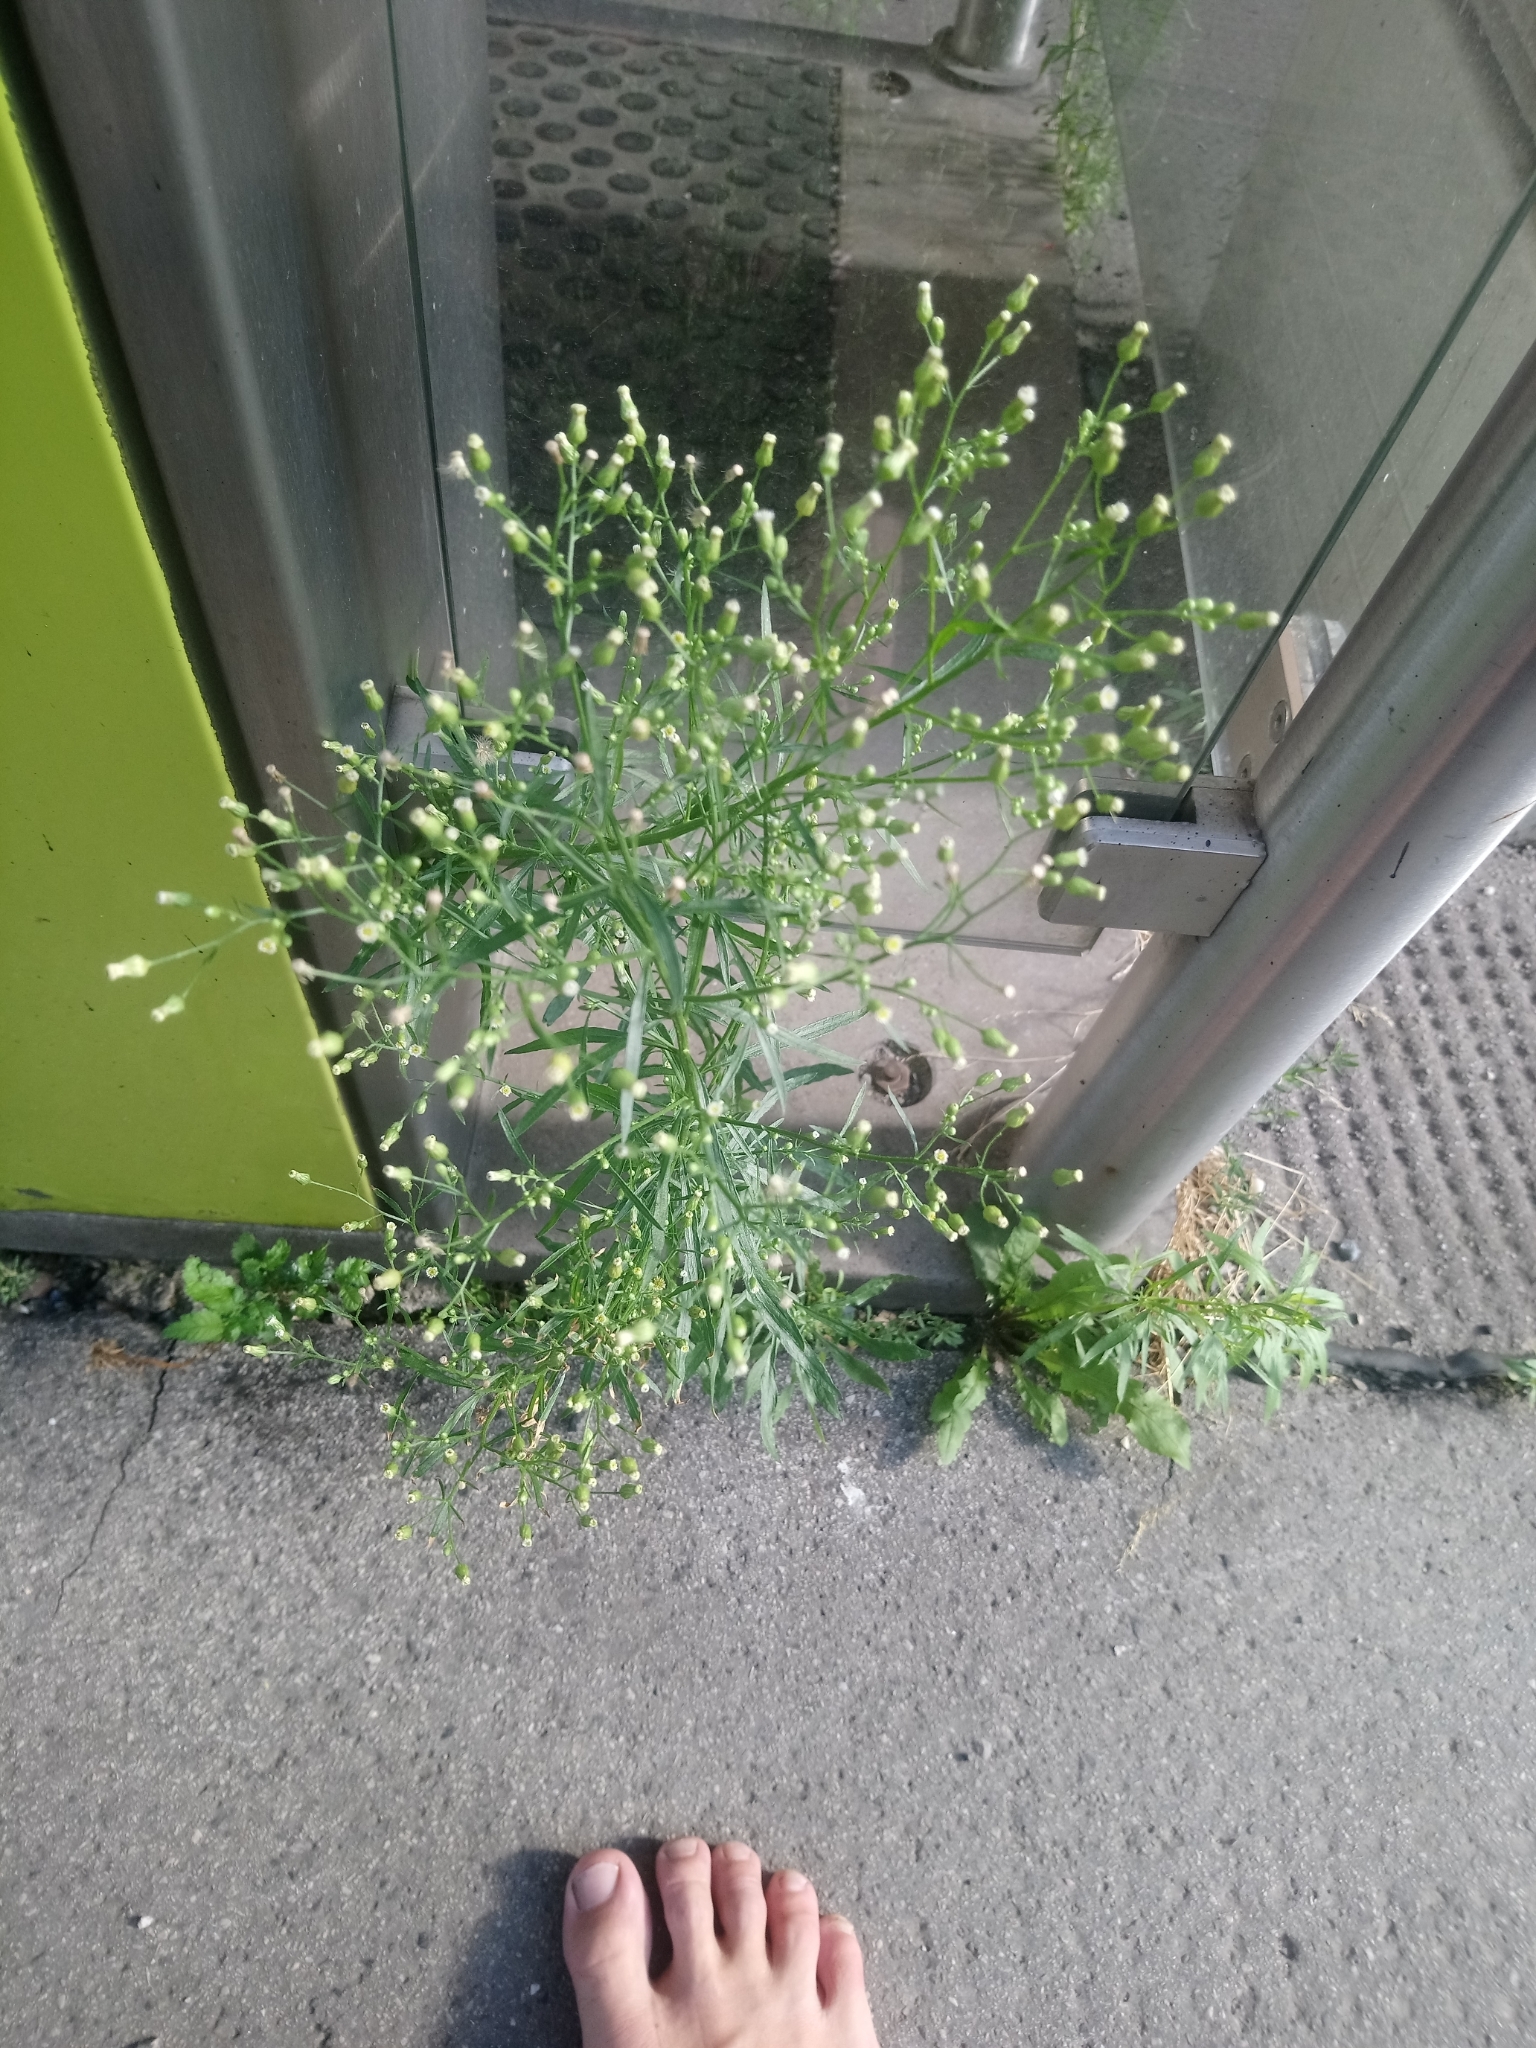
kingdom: Plantae
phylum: Tracheophyta
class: Magnoliopsida
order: Asterales
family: Asteraceae
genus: Erigeron
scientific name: Erigeron canadensis
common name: Canadian fleabane
